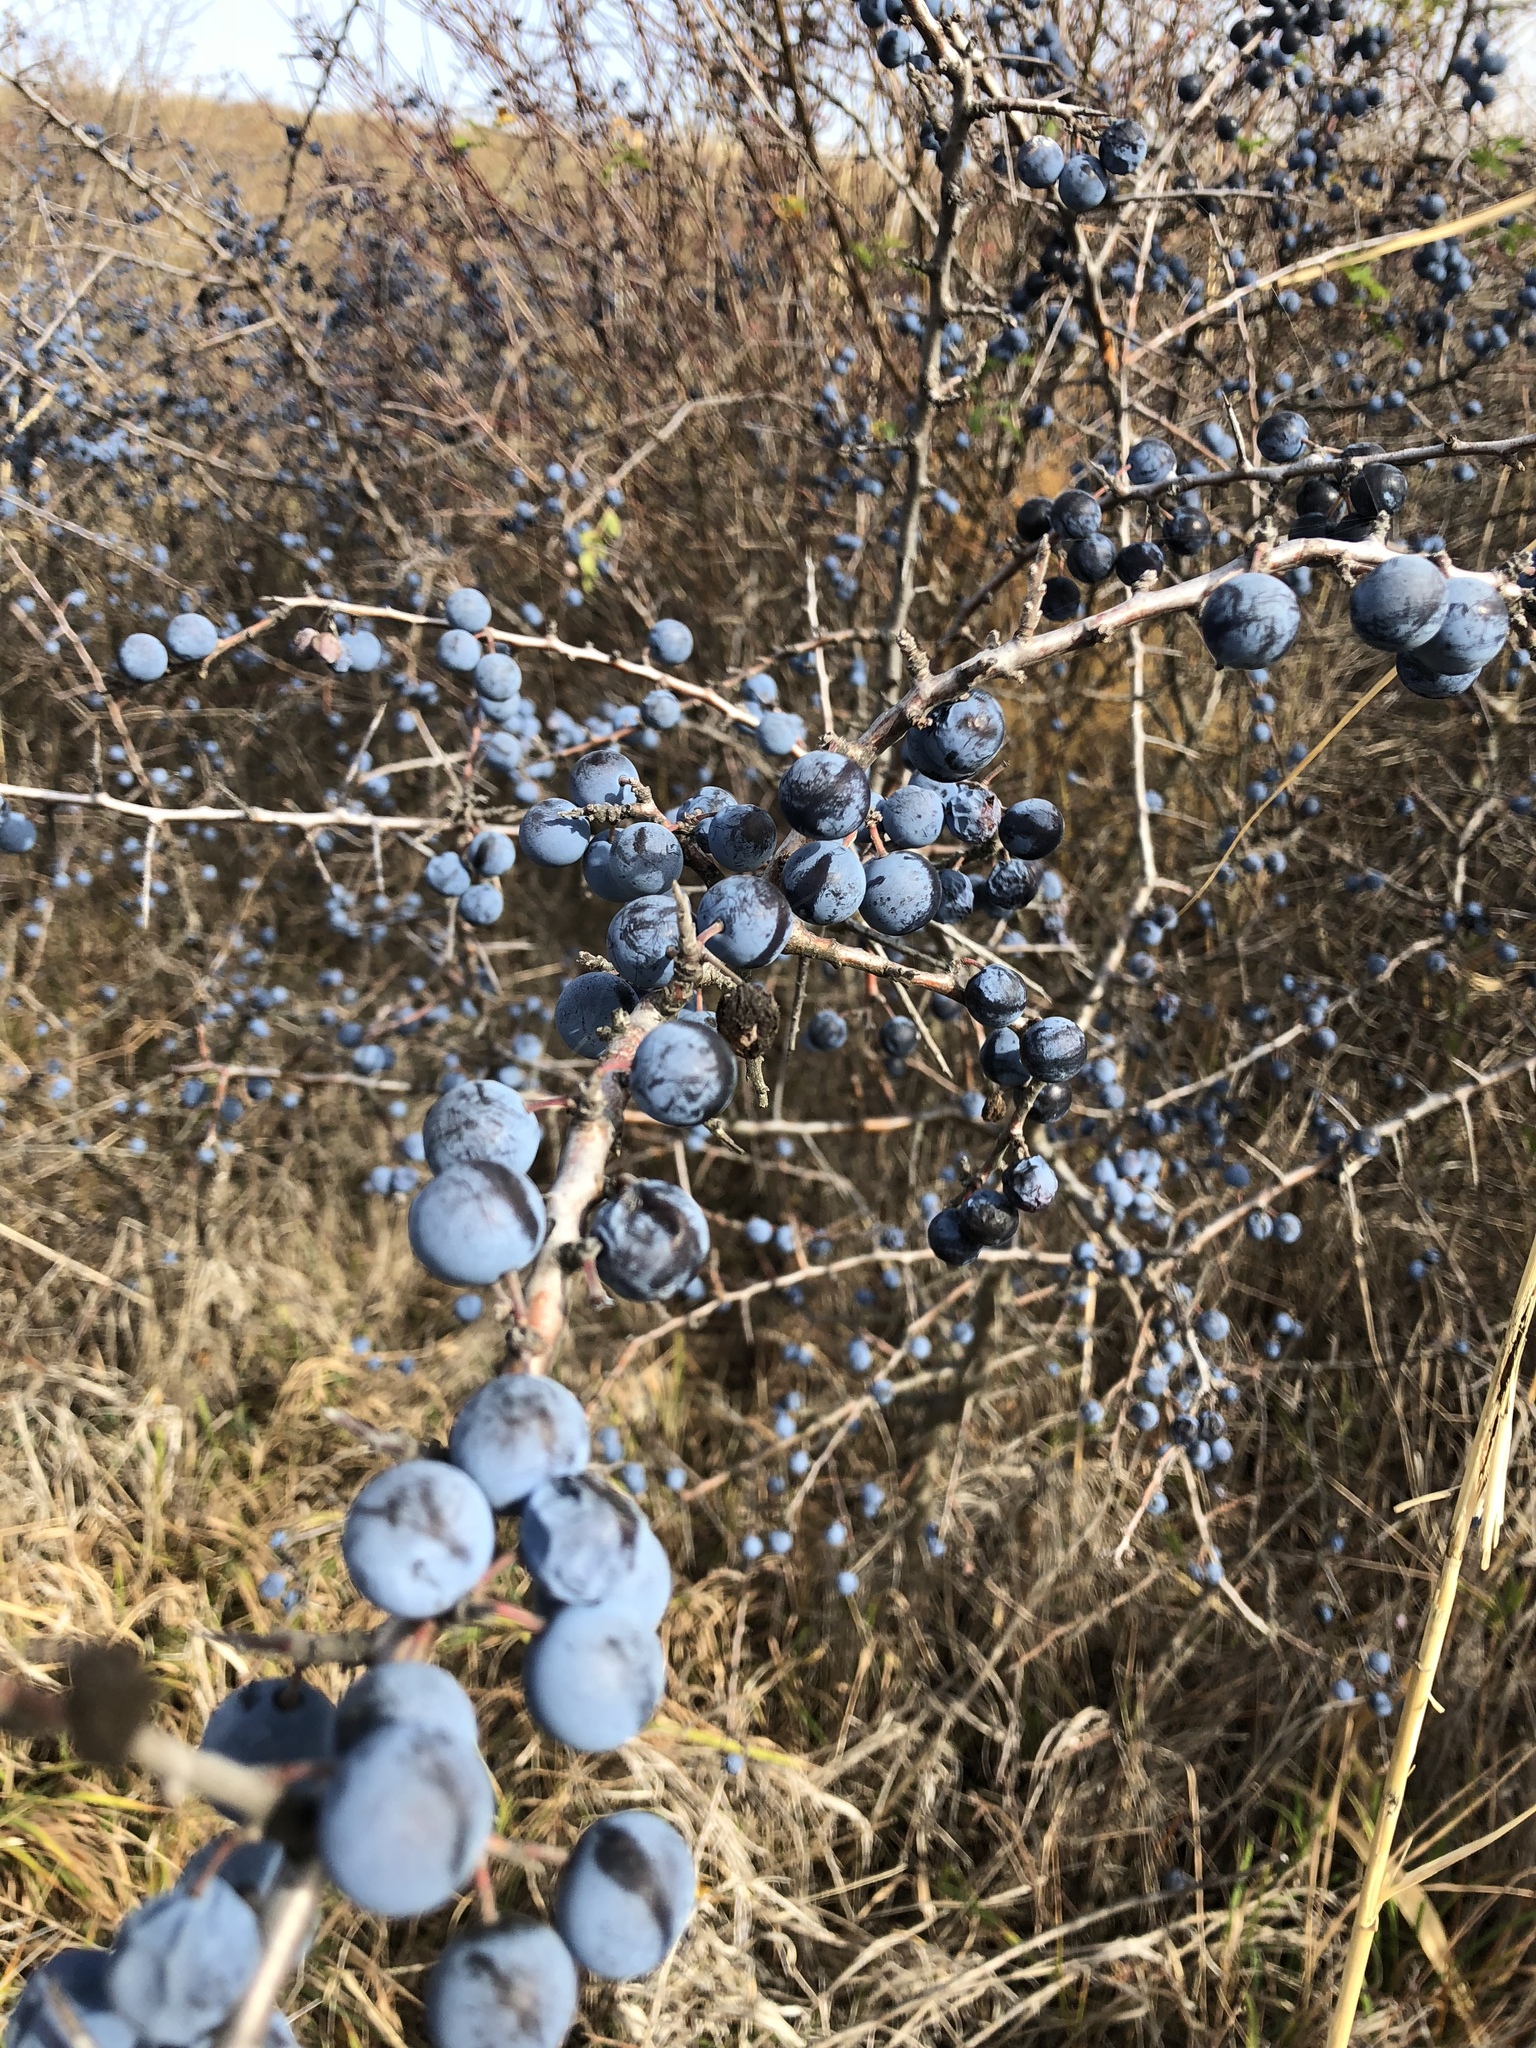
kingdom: Plantae
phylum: Tracheophyta
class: Magnoliopsida
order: Rosales
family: Rosaceae
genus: Prunus
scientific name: Prunus spinosa
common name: Blackthorn
